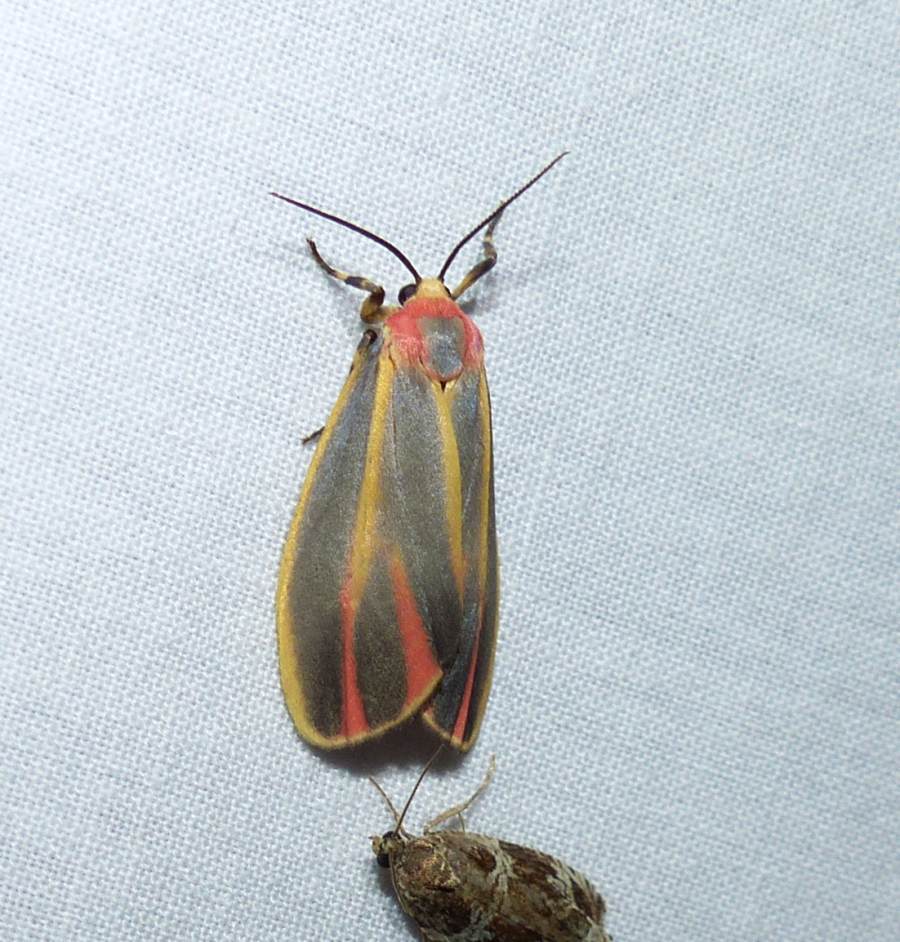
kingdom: Animalia
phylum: Arthropoda
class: Insecta
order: Lepidoptera
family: Erebidae
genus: Hypoprepia
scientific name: Hypoprepia fucosa
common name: Painted lichen moth
